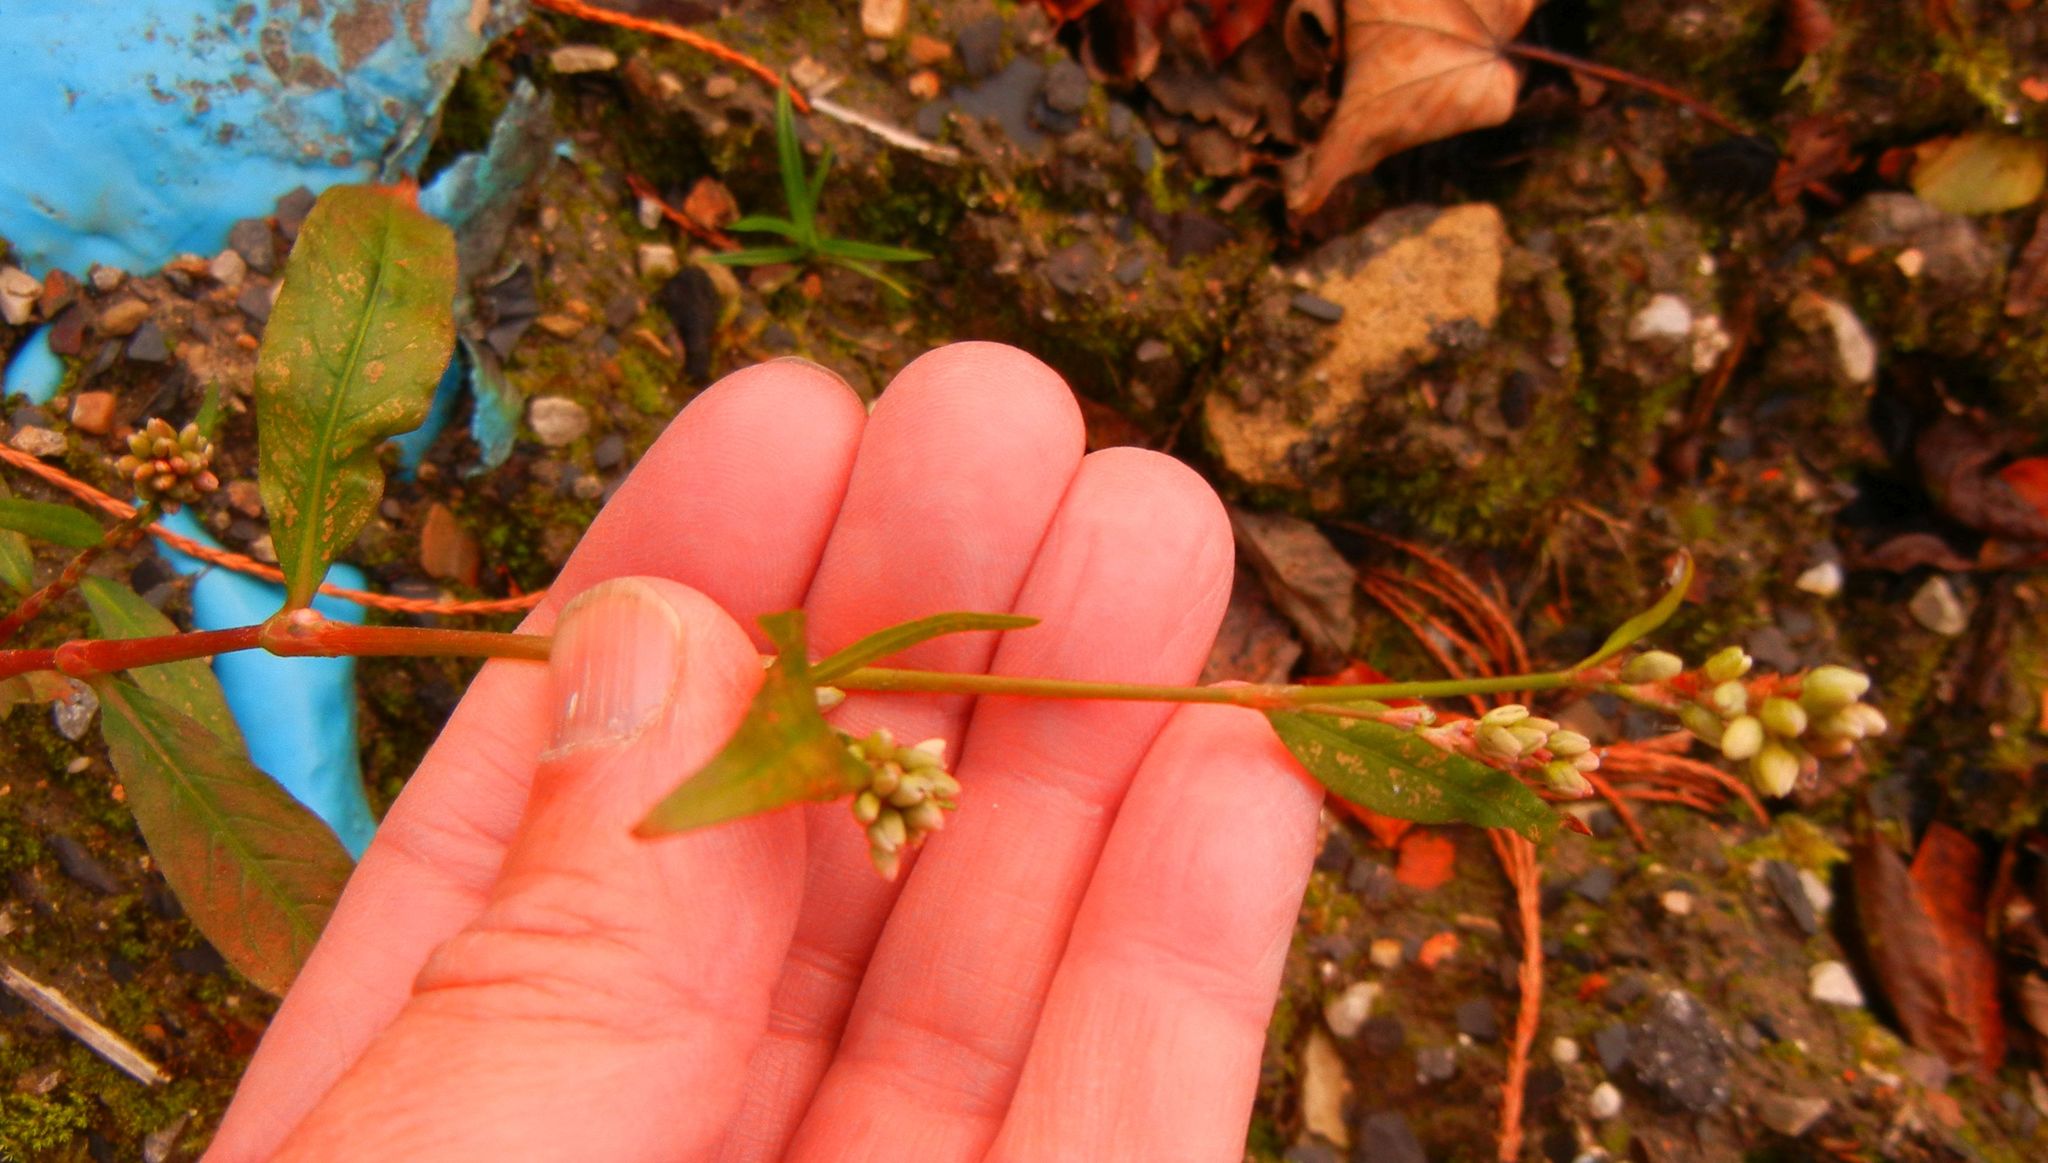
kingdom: Plantae
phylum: Tracheophyta
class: Magnoliopsida
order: Caryophyllales
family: Polygonaceae
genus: Persicaria
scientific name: Persicaria amphibia
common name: Amphibious bistort
